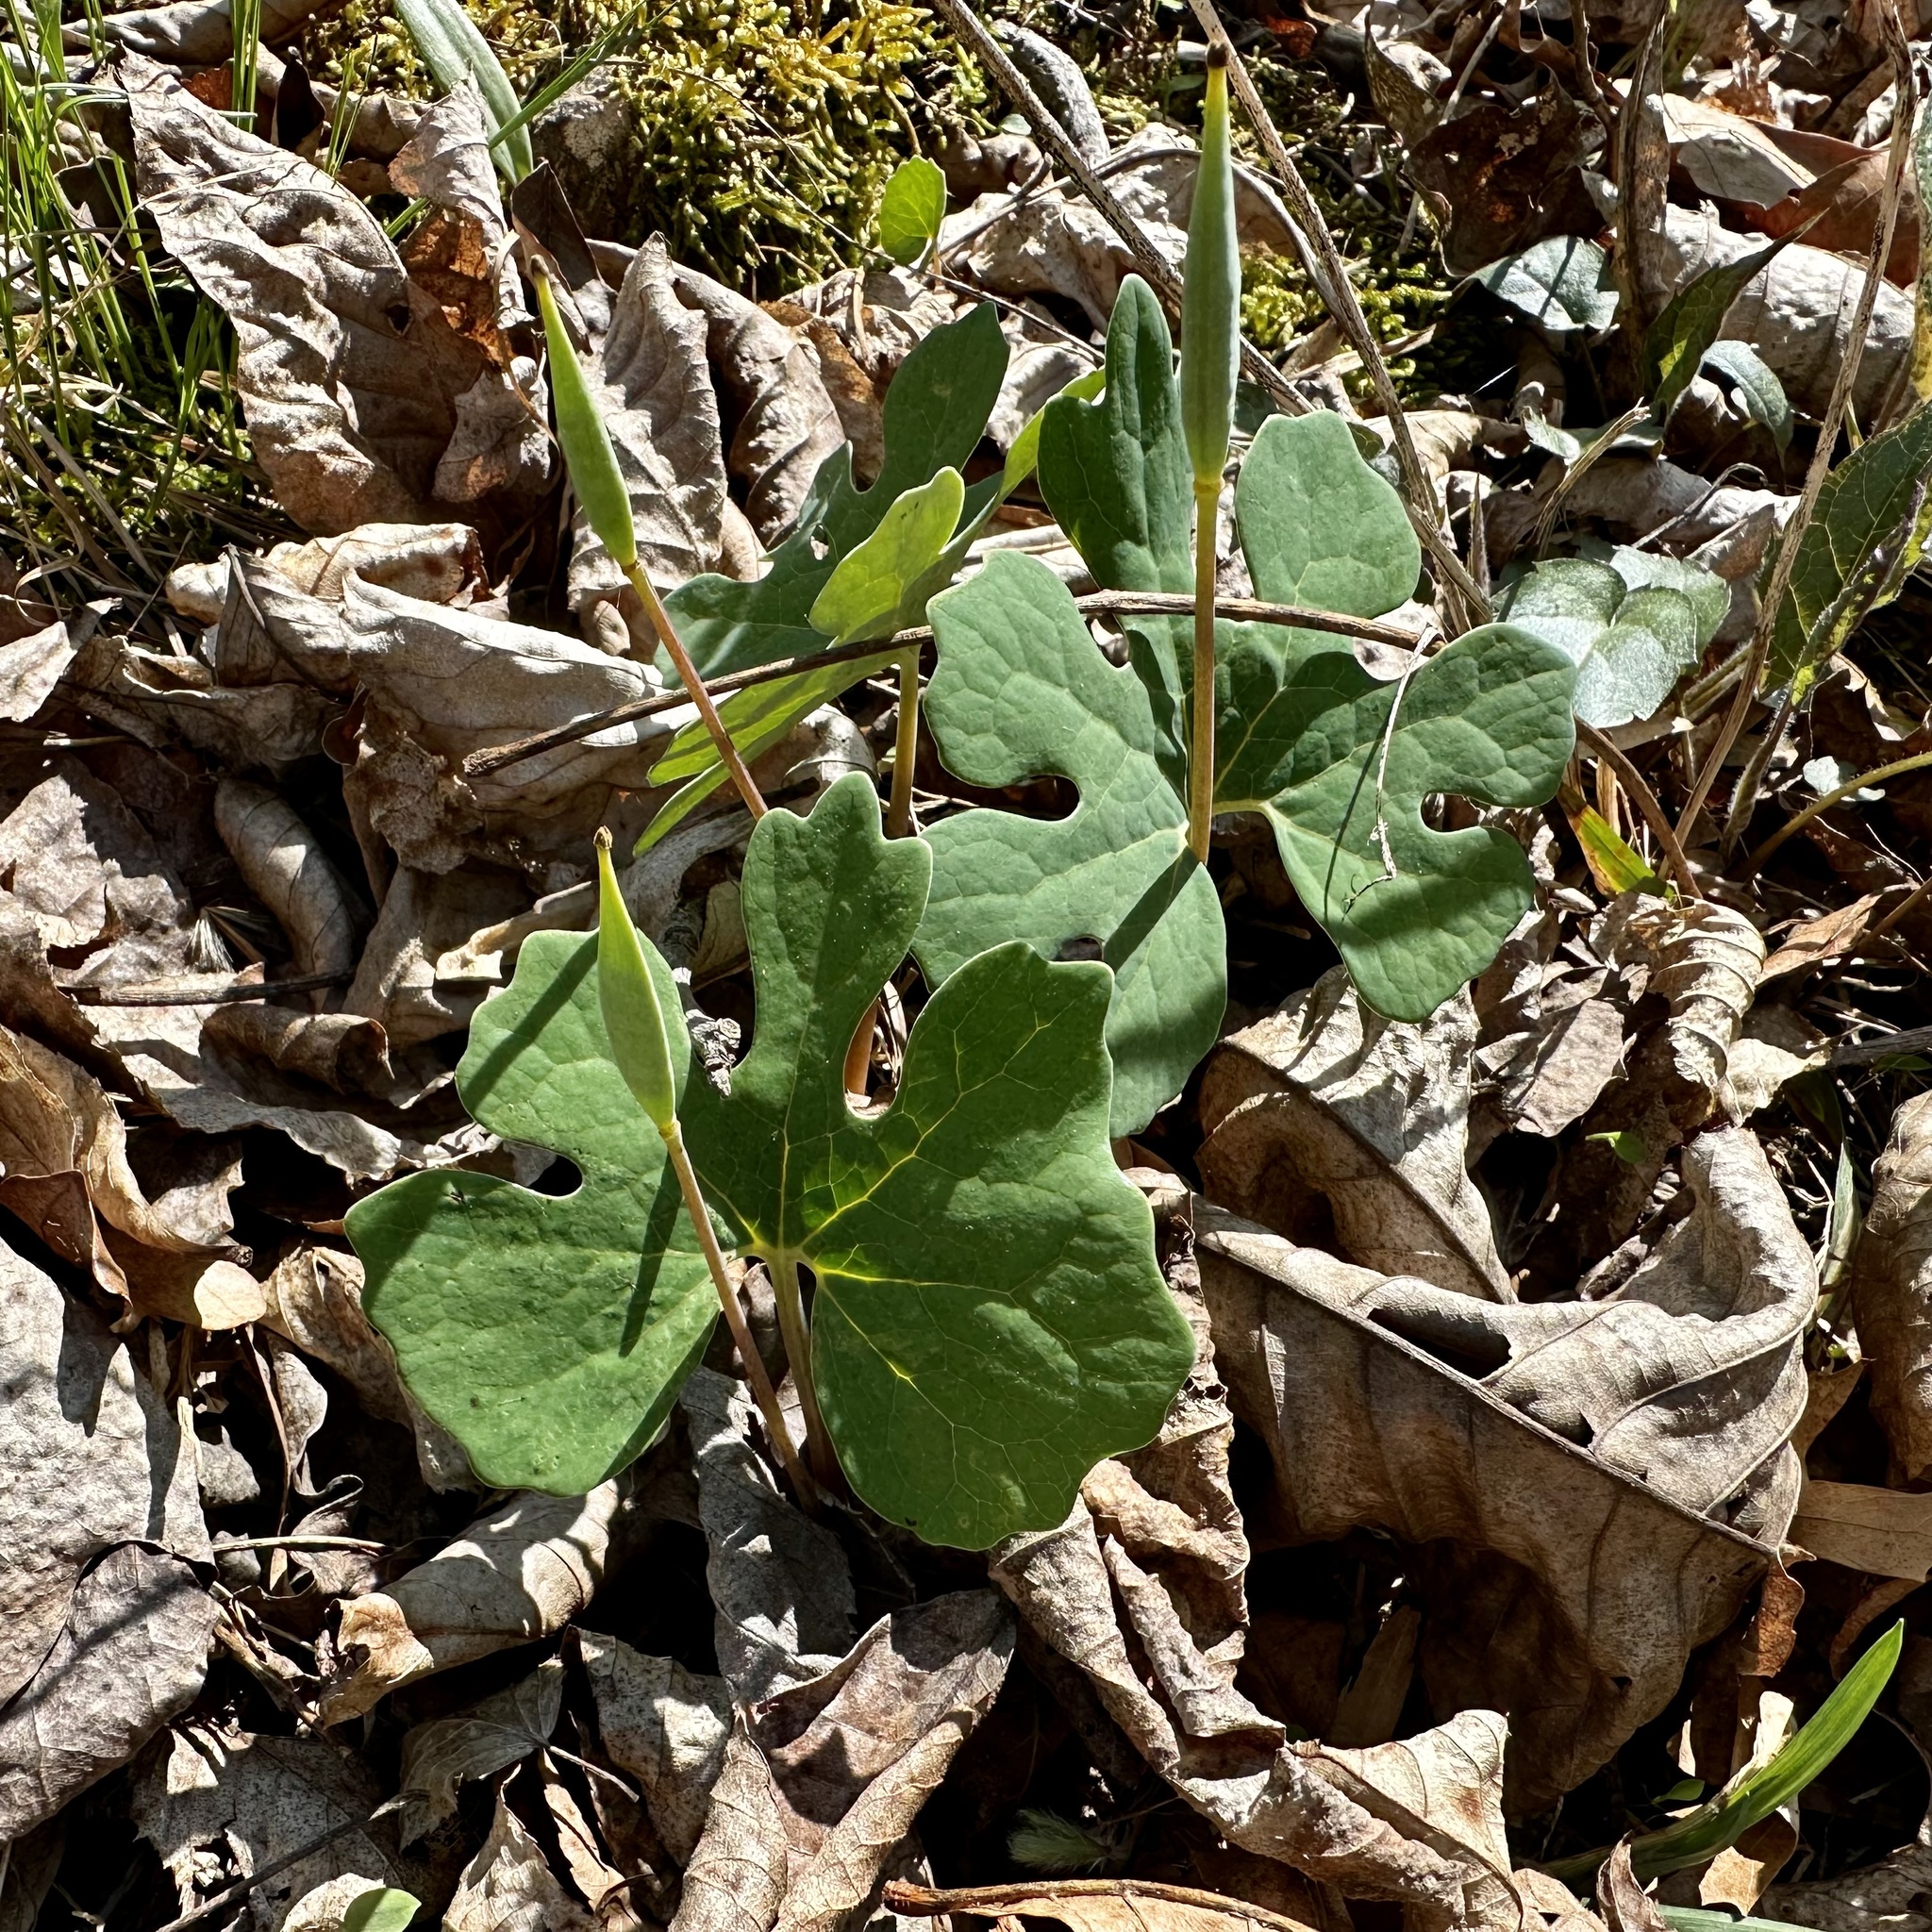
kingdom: Plantae
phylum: Tracheophyta
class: Magnoliopsida
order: Ranunculales
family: Papaveraceae
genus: Sanguinaria
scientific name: Sanguinaria canadensis
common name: Bloodroot
